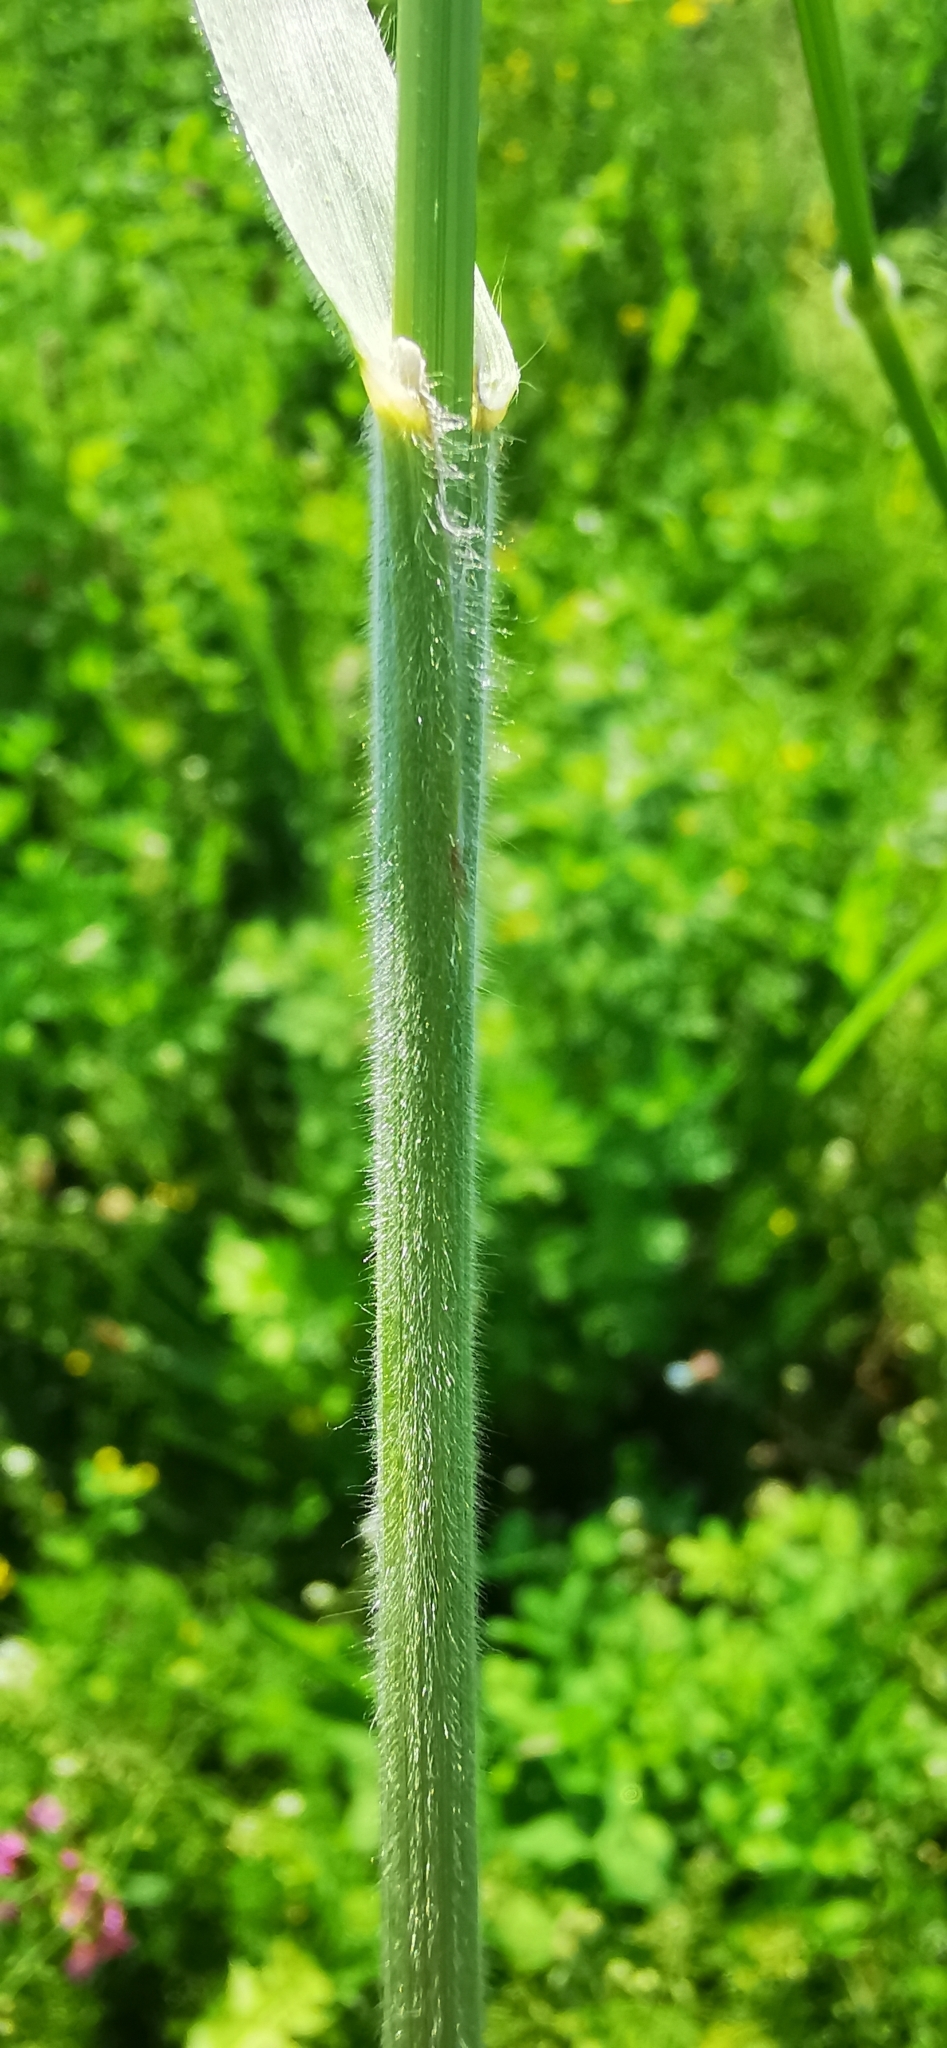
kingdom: Plantae
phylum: Tracheophyta
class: Liliopsida
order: Poales
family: Poaceae
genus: Bromus
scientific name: Bromus hordeaceus
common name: Soft brome
